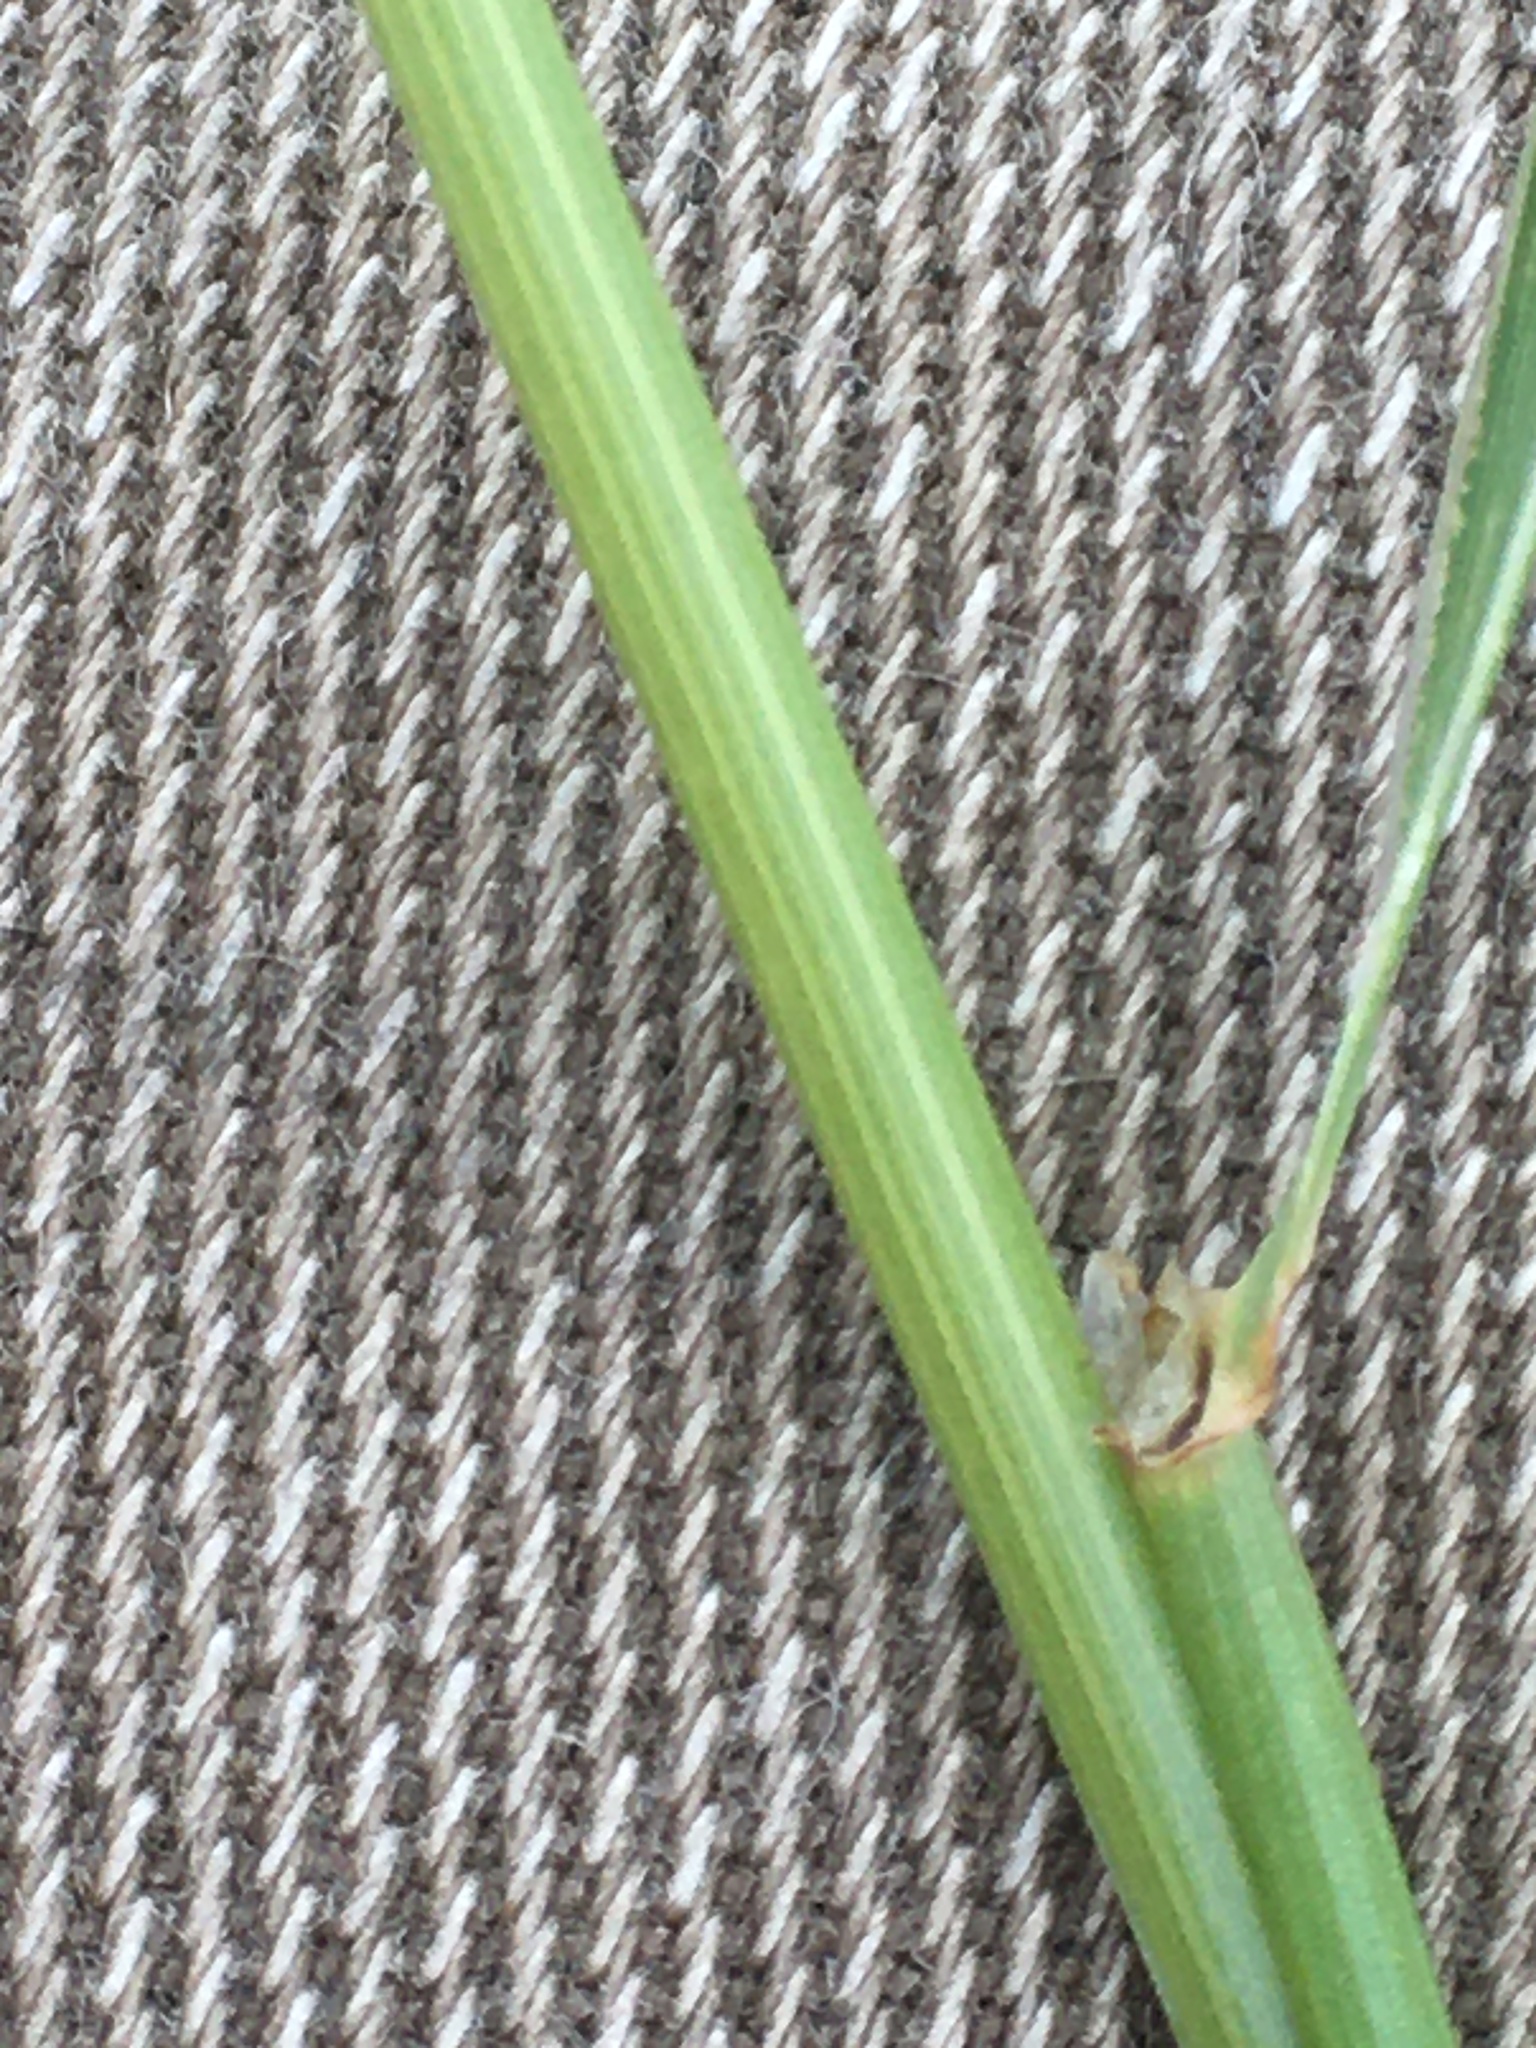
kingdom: Plantae
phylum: Tracheophyta
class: Liliopsida
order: Poales
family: Poaceae
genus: Elymus
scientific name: Elymus violaceus
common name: Arctic wheatgrass
